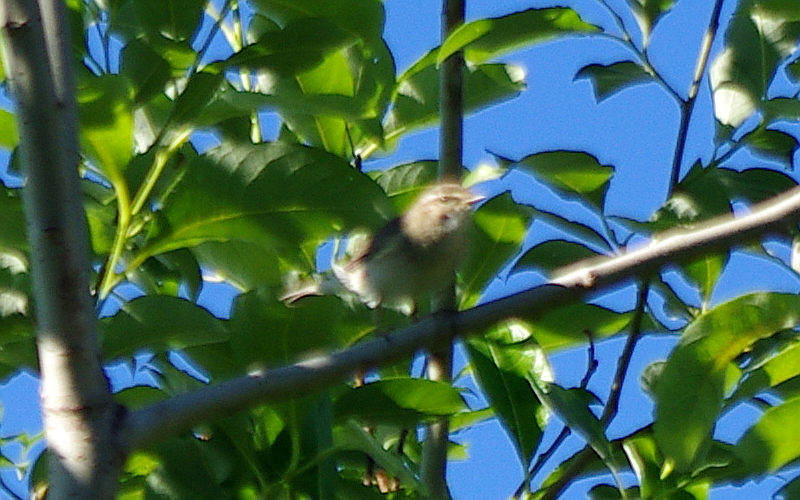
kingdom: Animalia
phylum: Chordata
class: Aves
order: Passeriformes
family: Phylloscopidae
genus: Phylloscopus
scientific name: Phylloscopus trochilus
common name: Willow warbler
